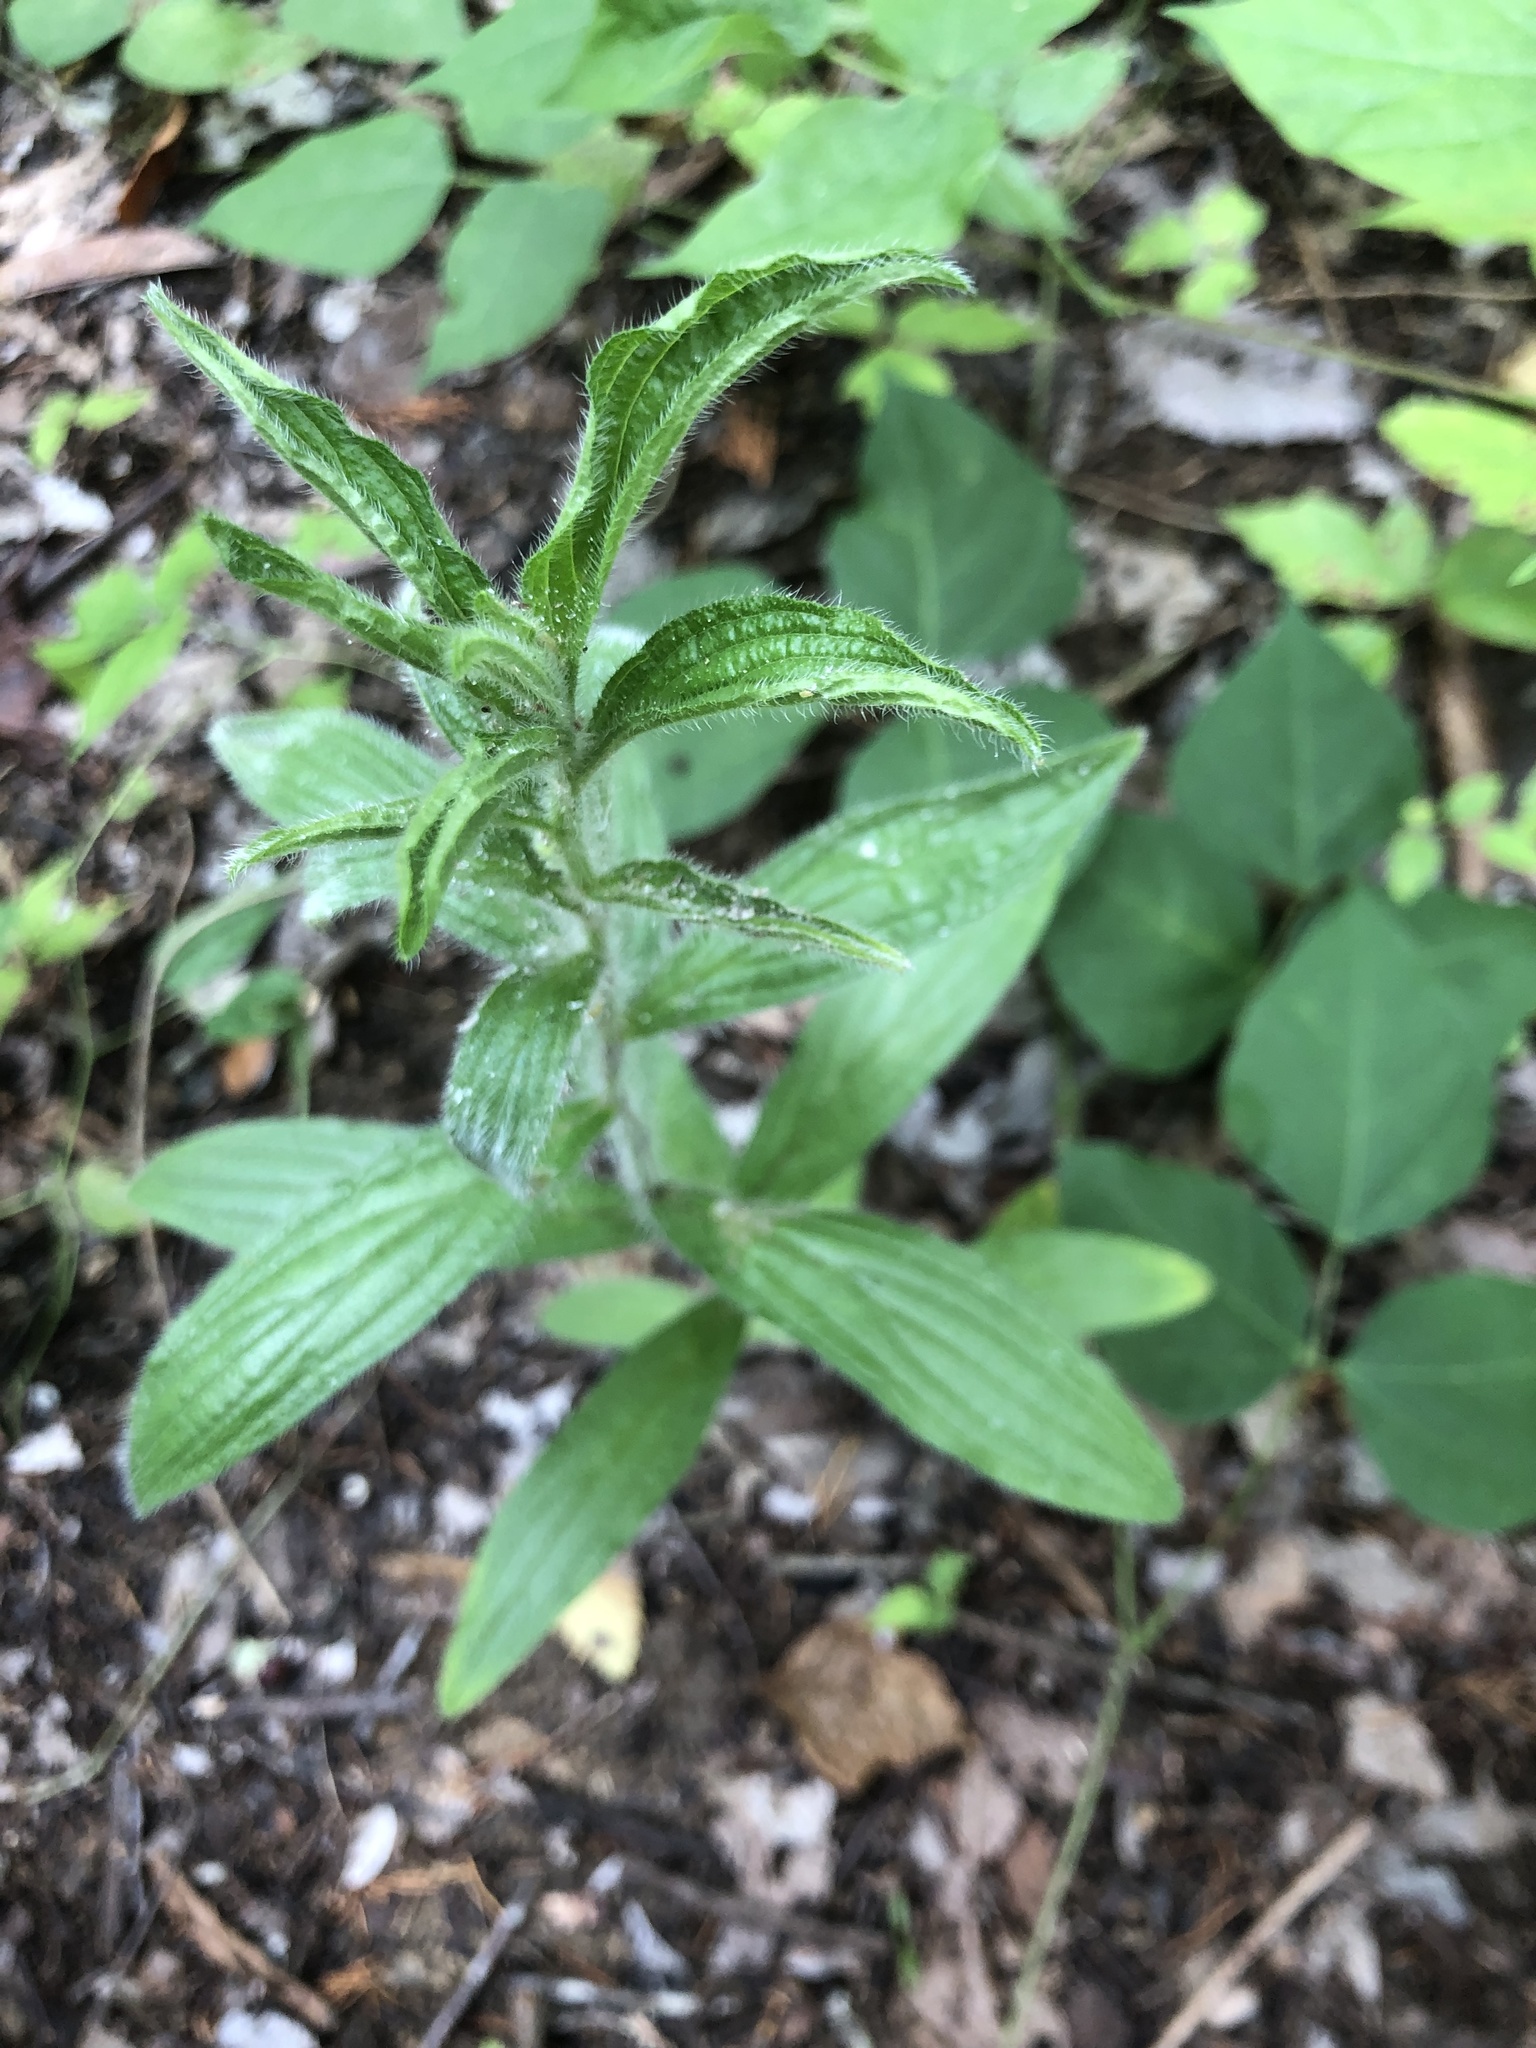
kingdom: Plantae
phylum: Tracheophyta
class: Magnoliopsida
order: Boraginales
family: Boraginaceae
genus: Lithospermum
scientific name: Lithospermum caroliniense
